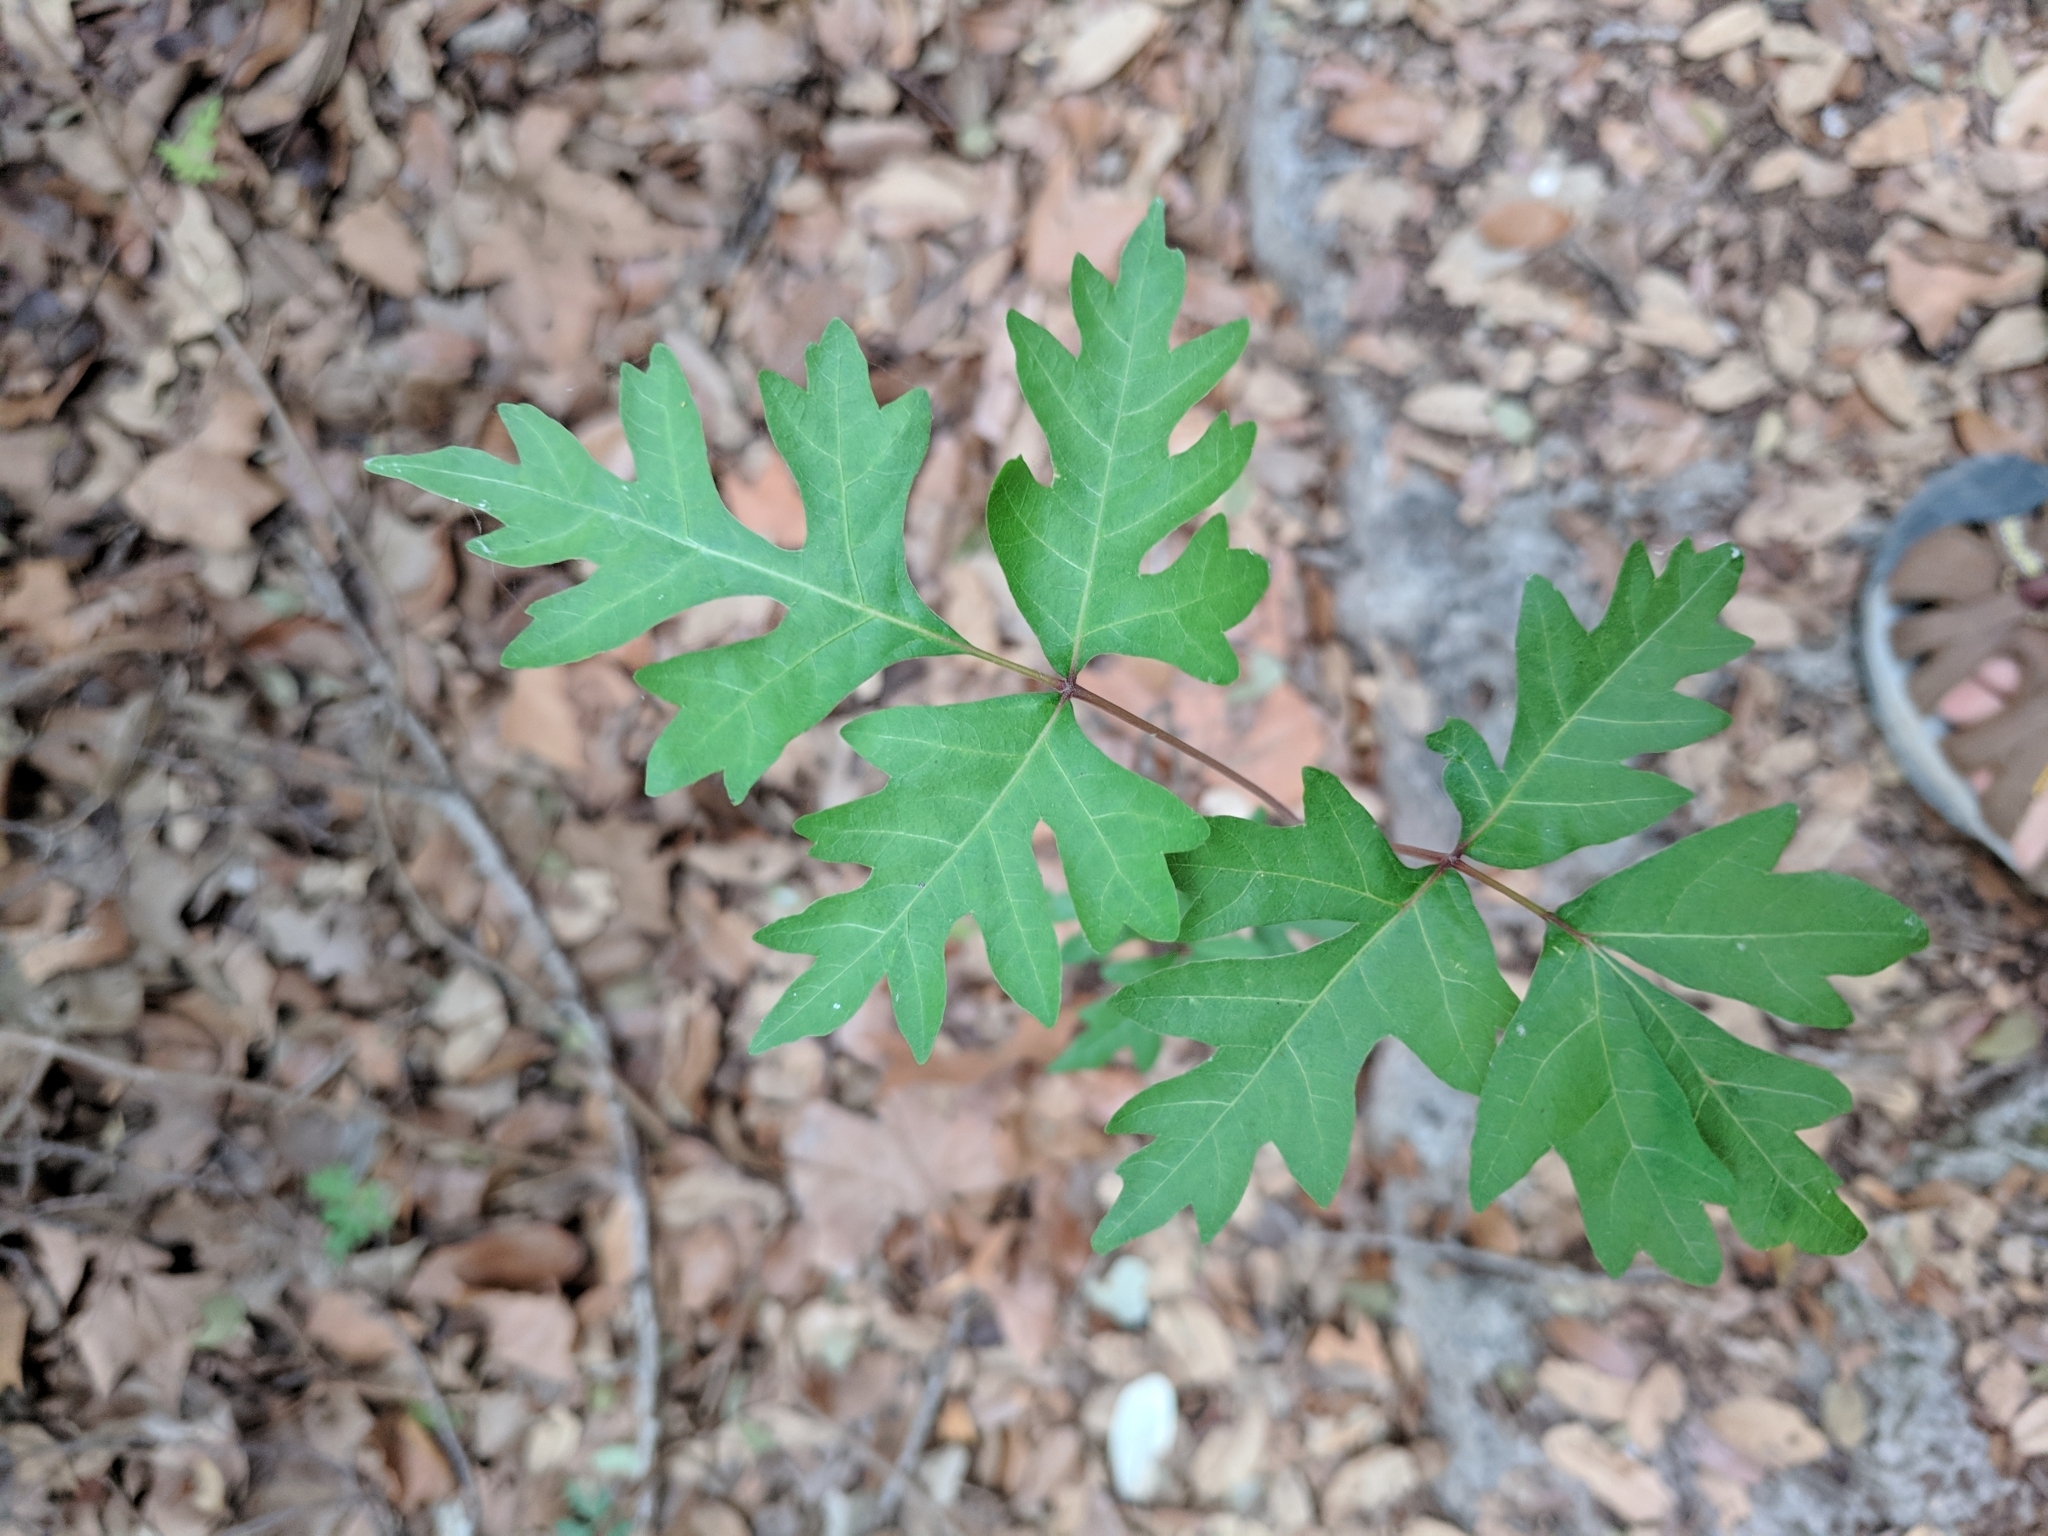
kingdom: Plantae
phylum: Tracheophyta
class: Magnoliopsida
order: Sapindales
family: Anacardiaceae
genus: Toxicodendron
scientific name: Toxicodendron radicans
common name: Poison ivy
